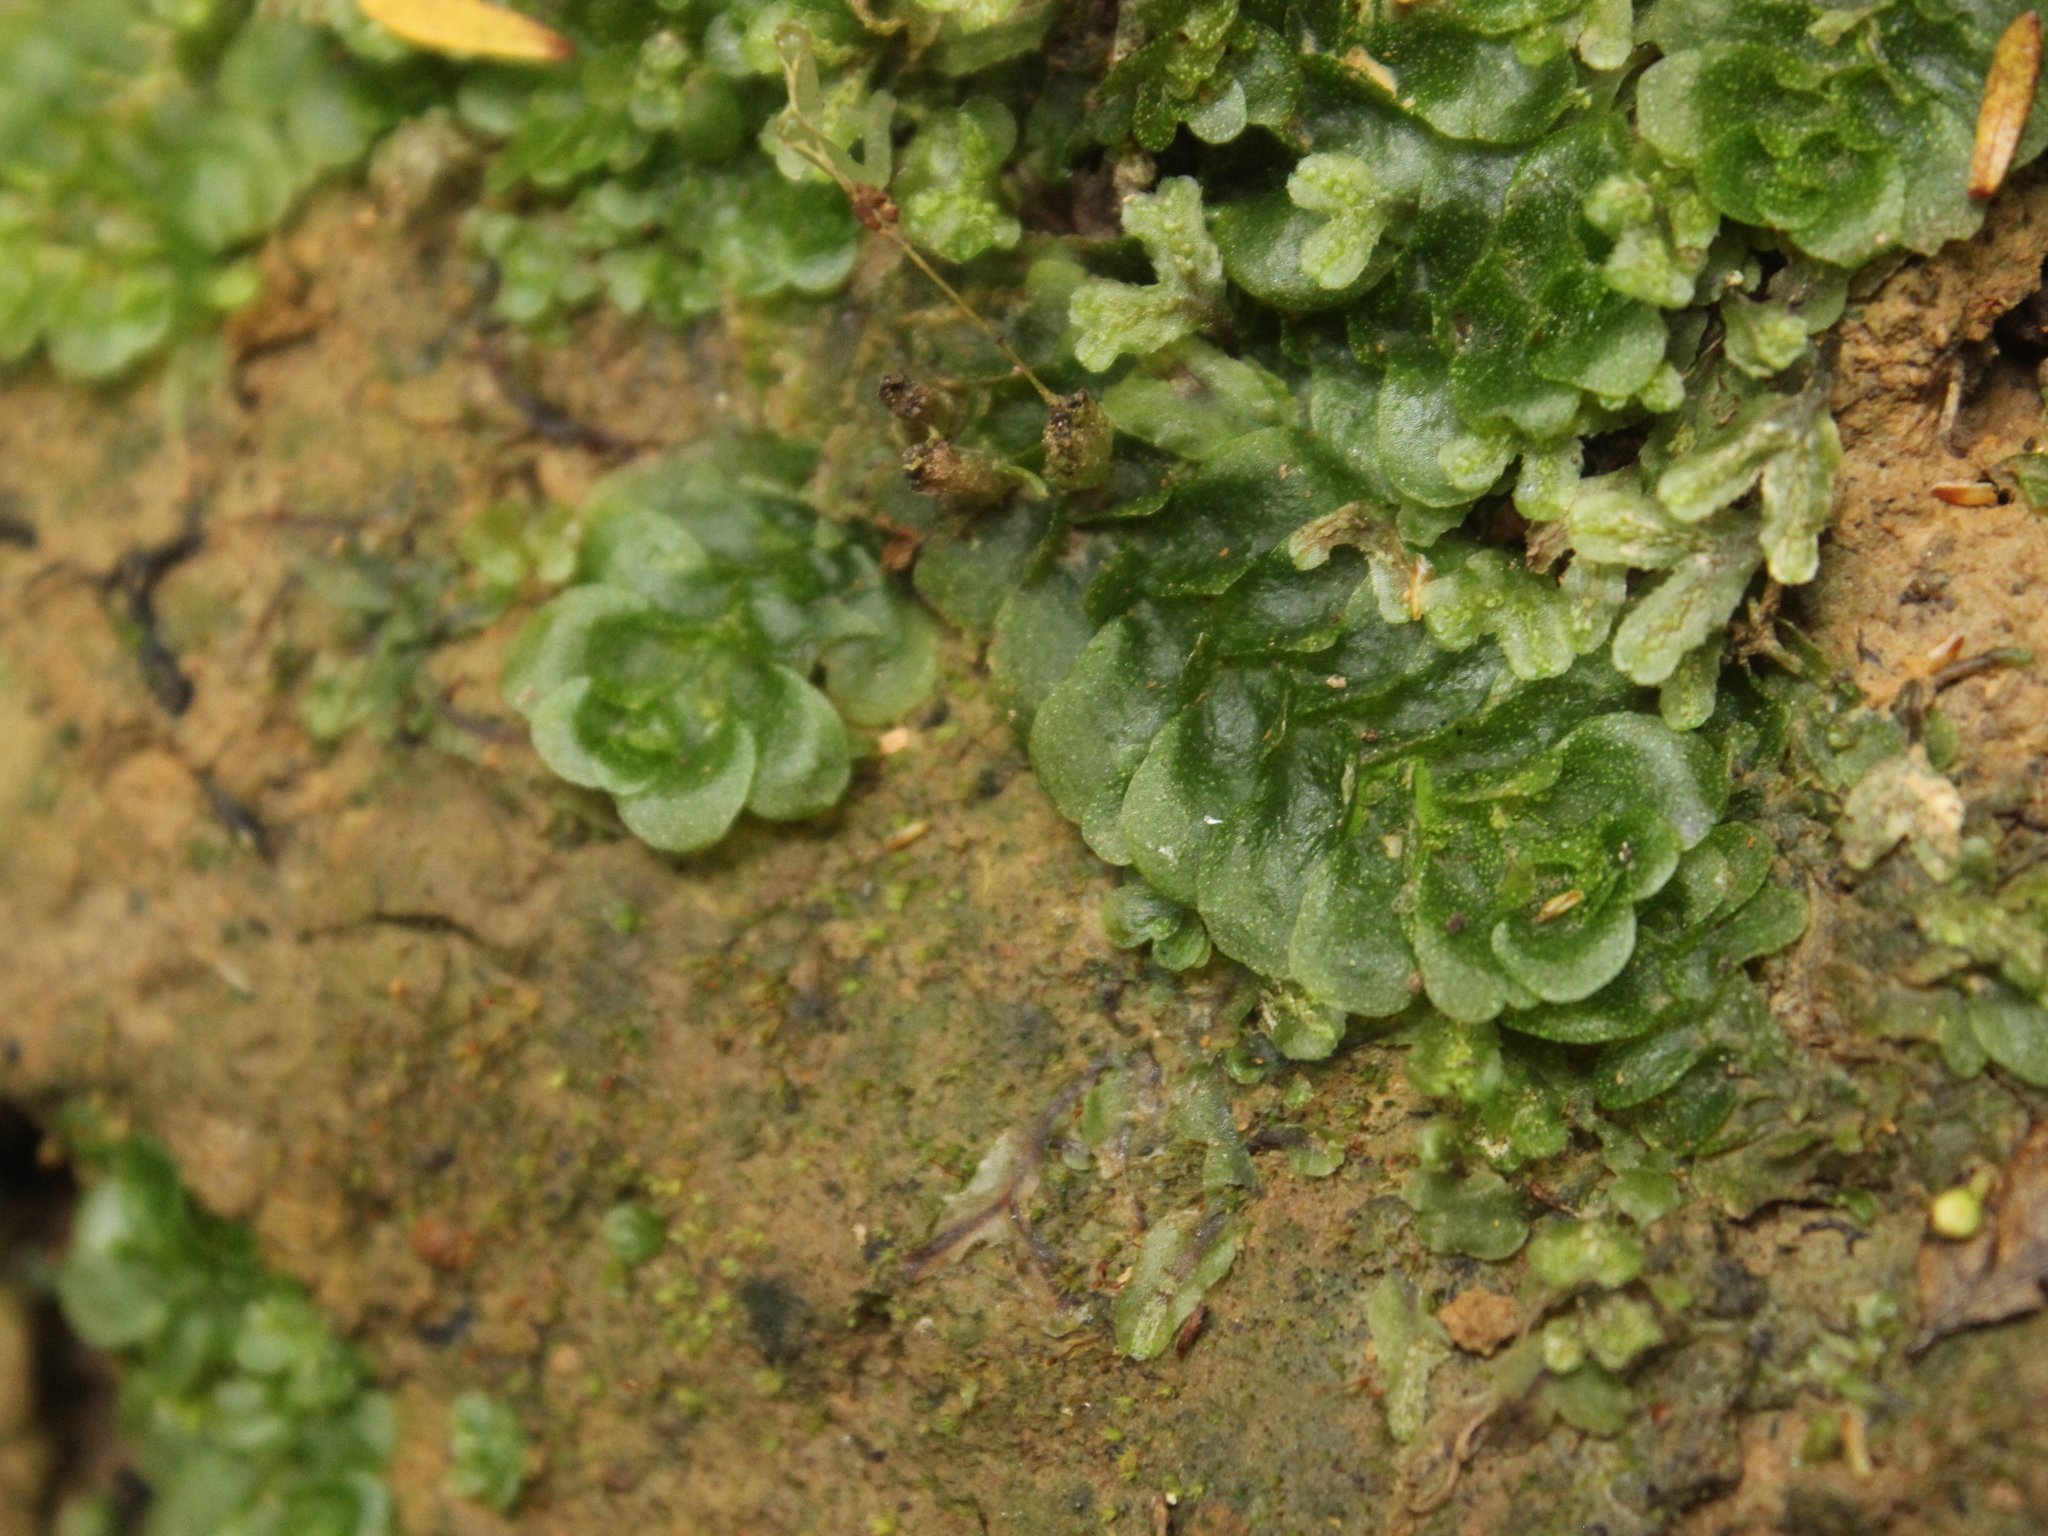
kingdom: Plantae
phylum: Marchantiophyta
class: Haplomitriopsida
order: Treubiales
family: Treubiaceae
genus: Treubia
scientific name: Treubia lacunosa
